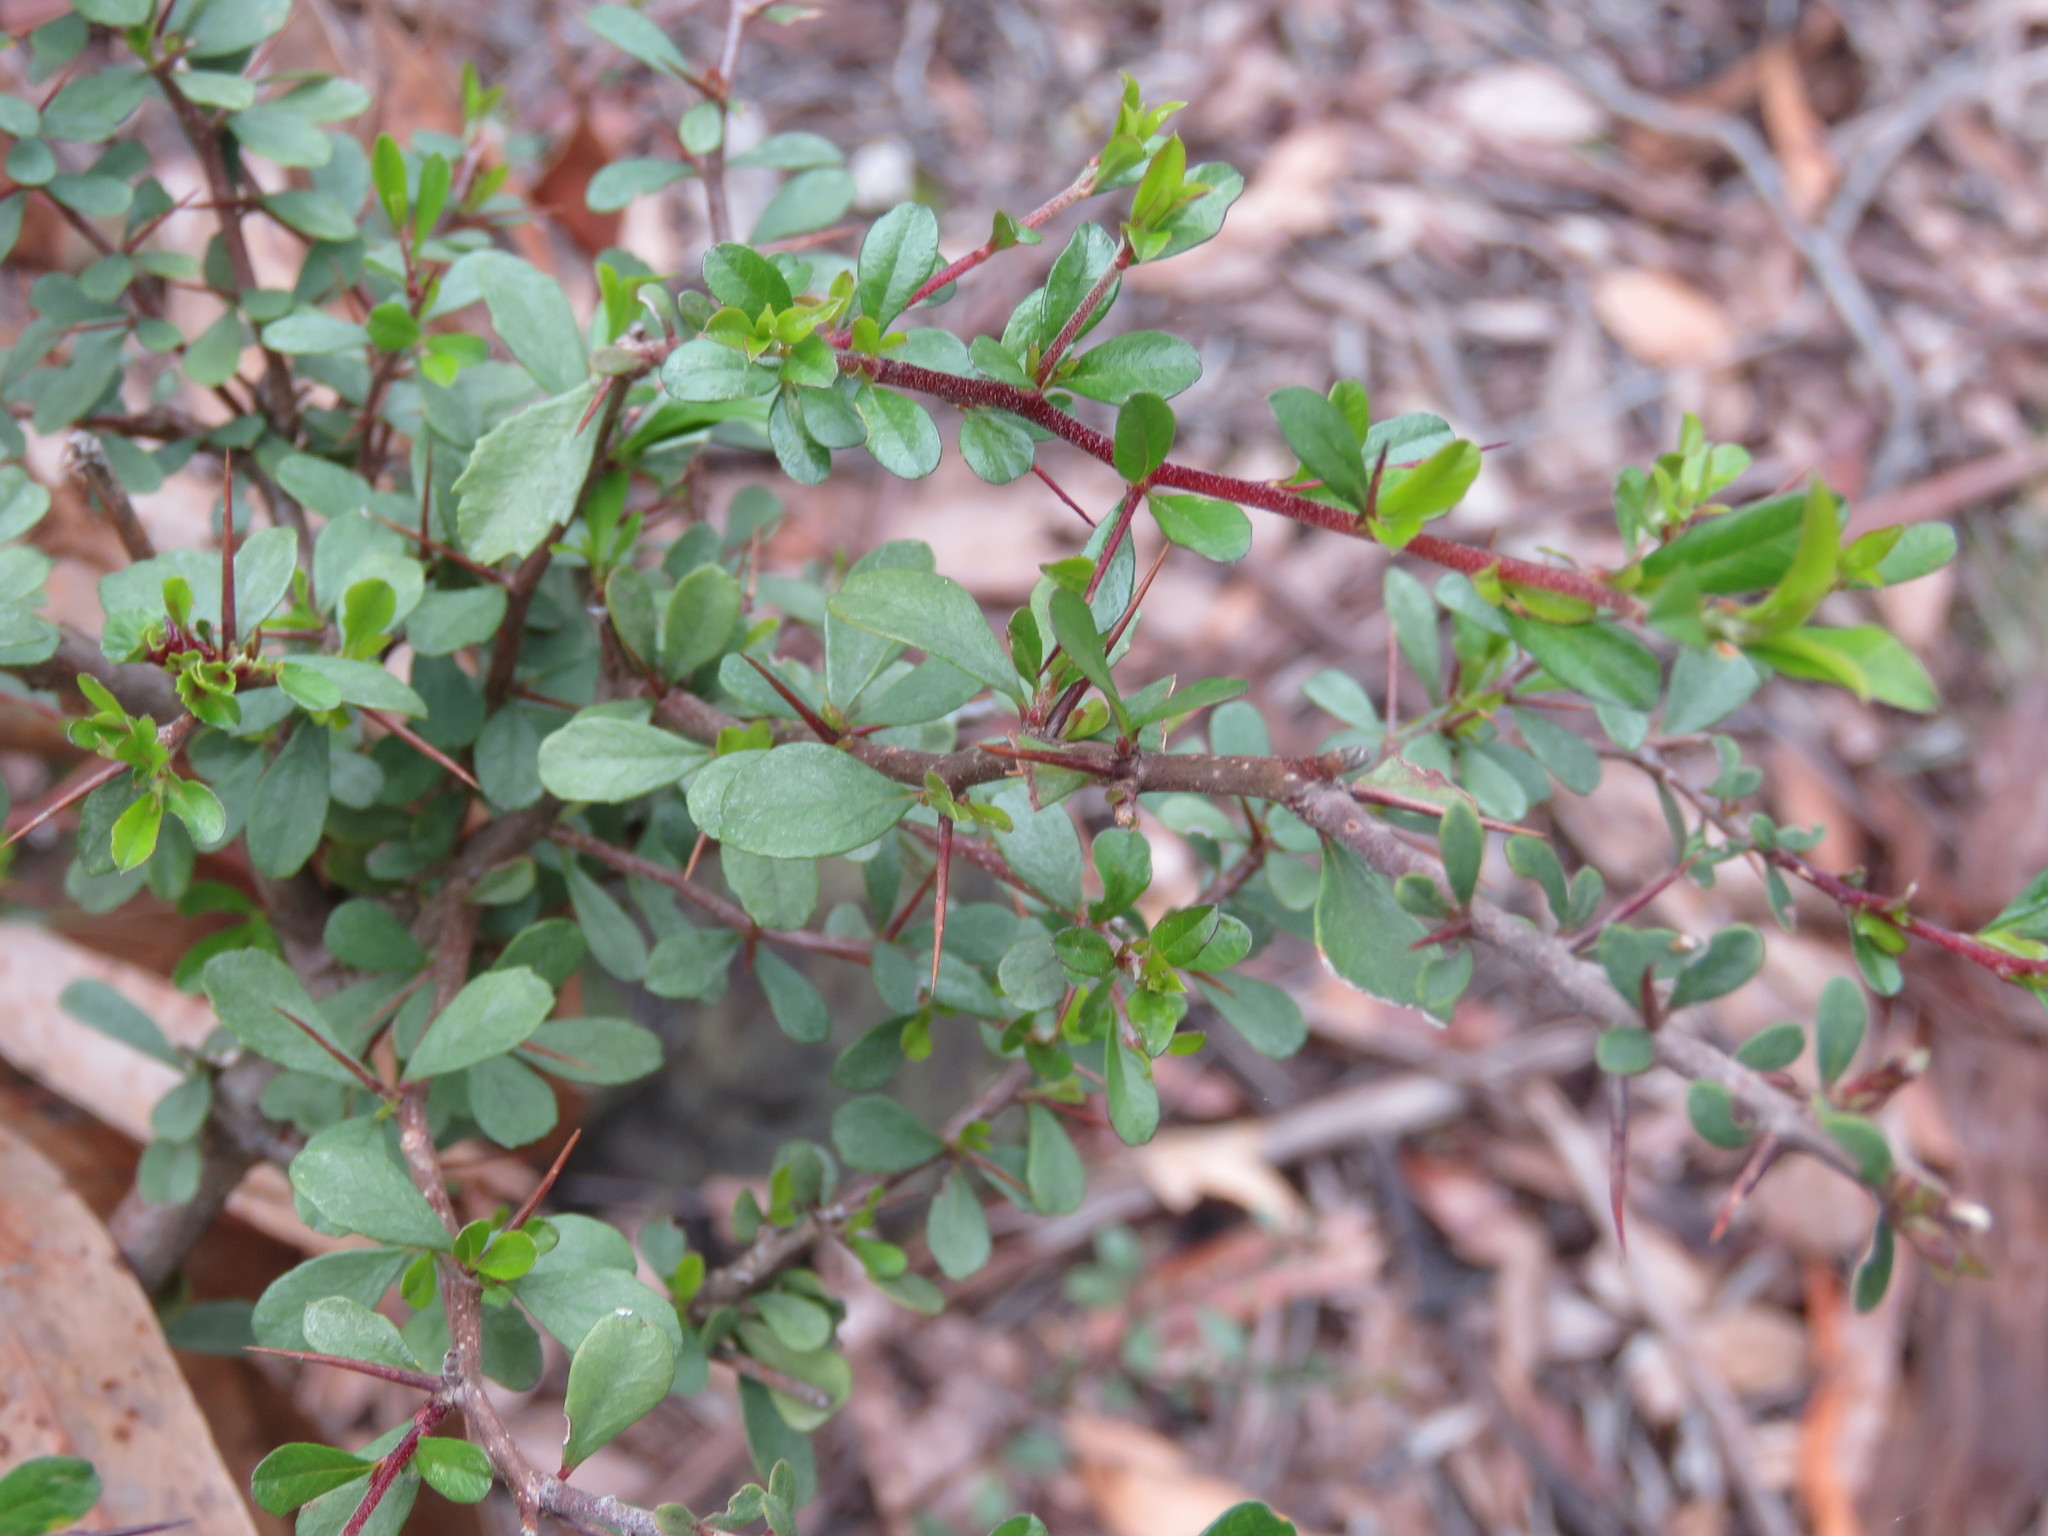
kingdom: Plantae
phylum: Tracheophyta
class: Magnoliopsida
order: Apiales
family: Pittosporaceae
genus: Bursaria
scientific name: Bursaria spinosa
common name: Australian blackthorn
